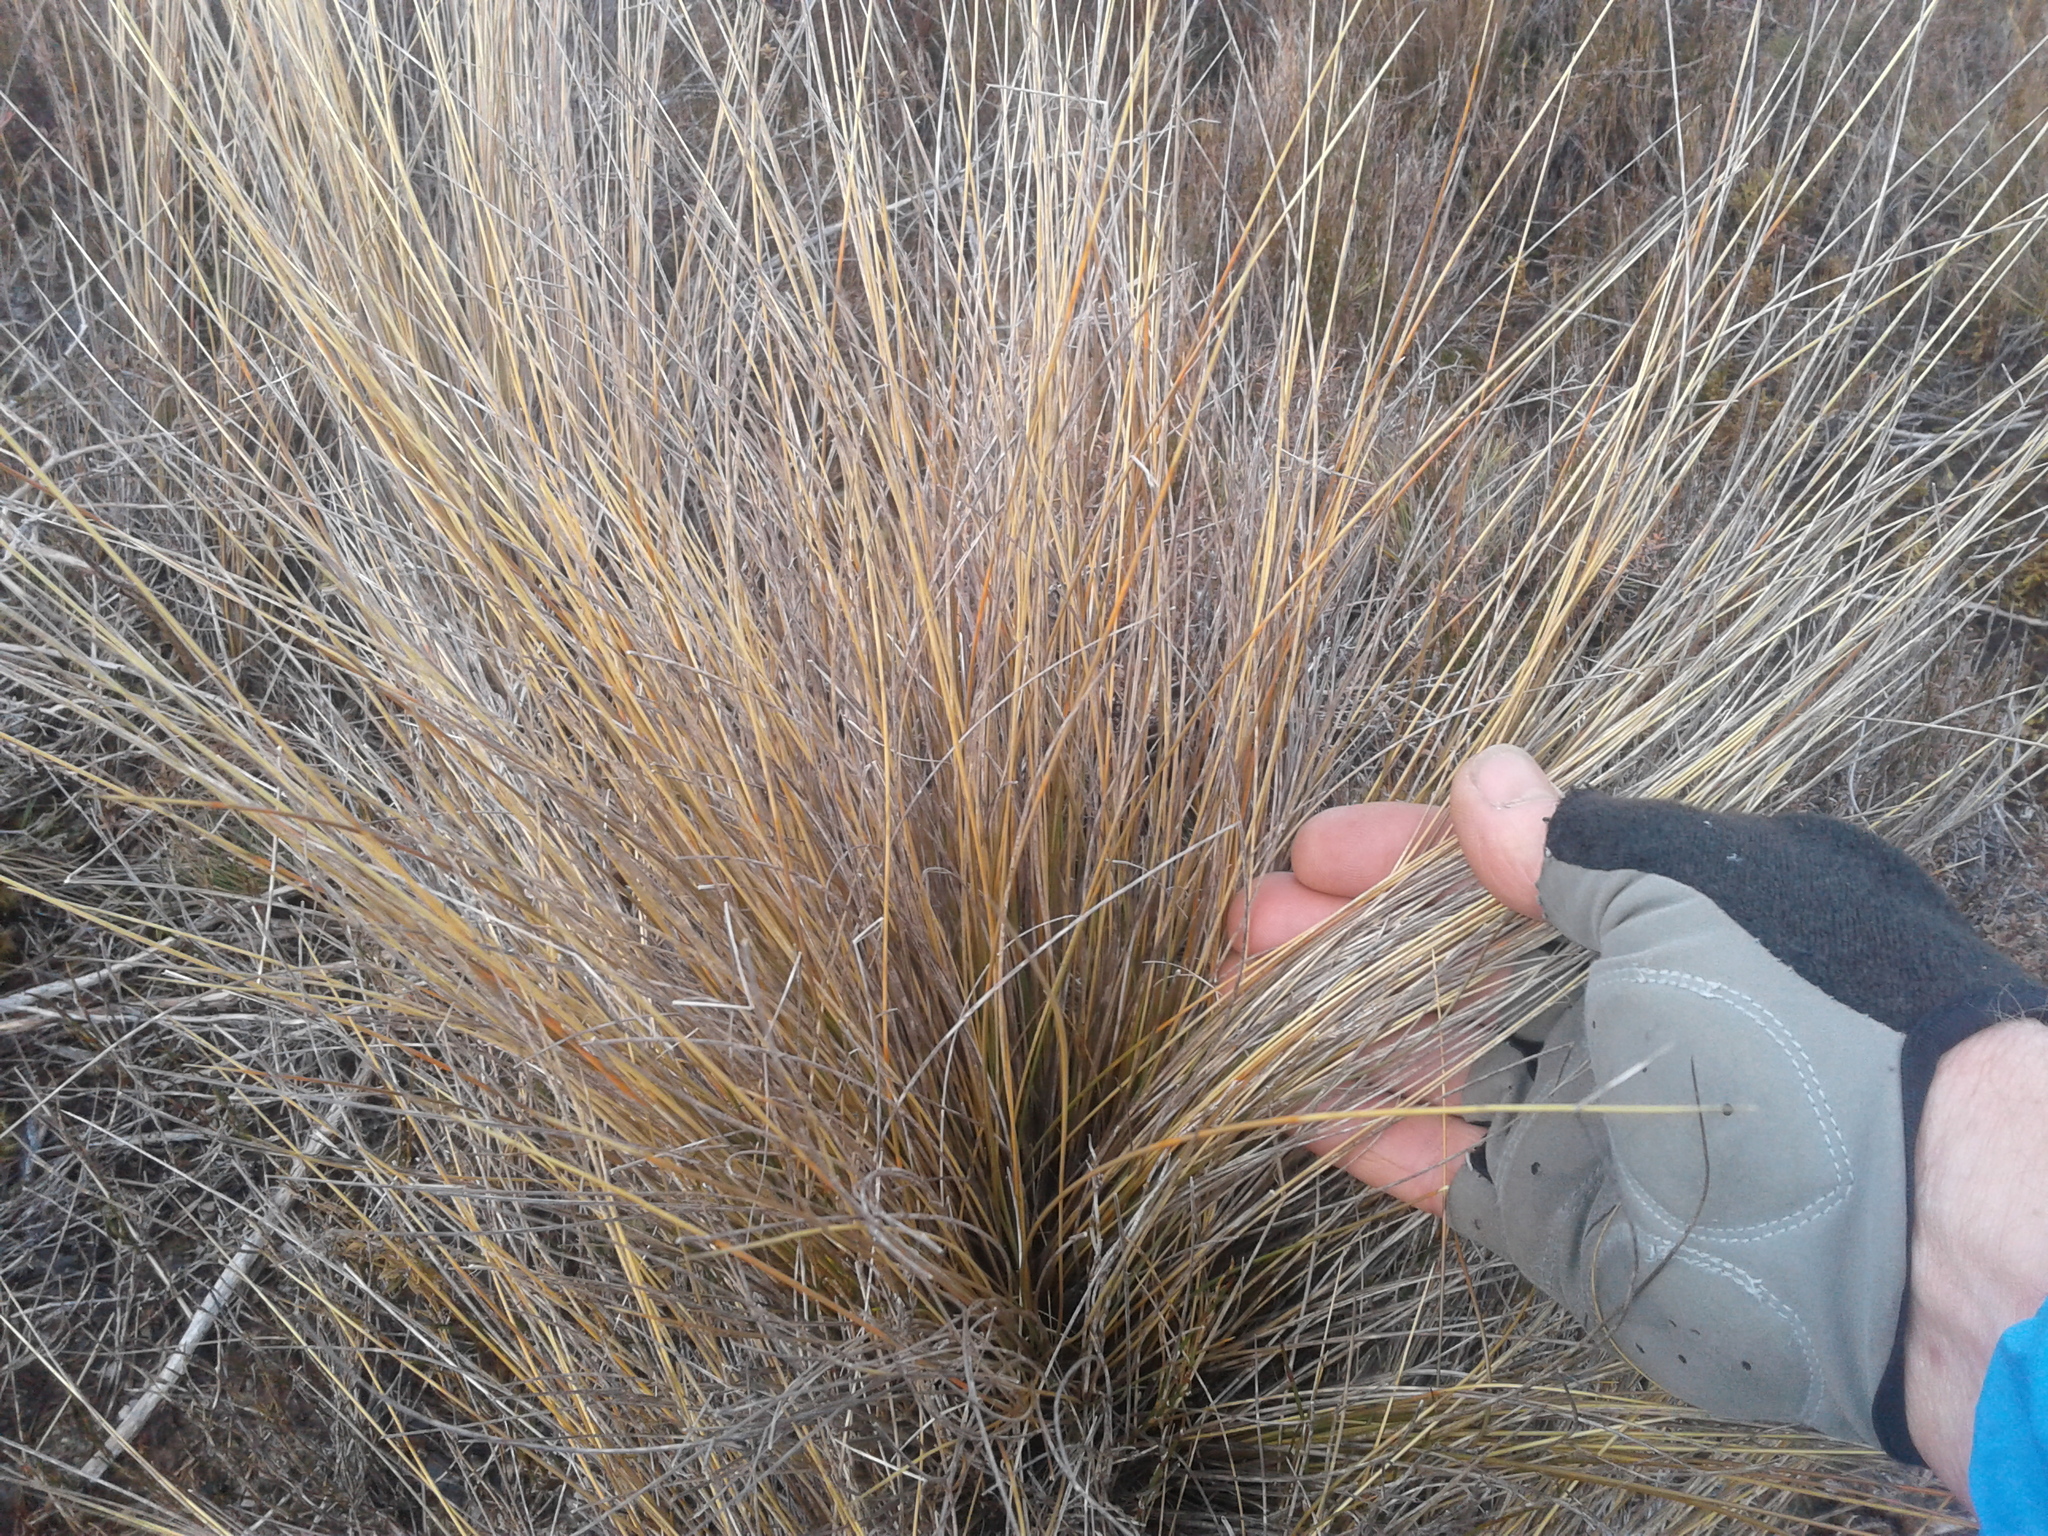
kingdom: Plantae
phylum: Tracheophyta
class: Liliopsida
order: Poales
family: Poaceae
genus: Chionochloa
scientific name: Chionochloa juncea
